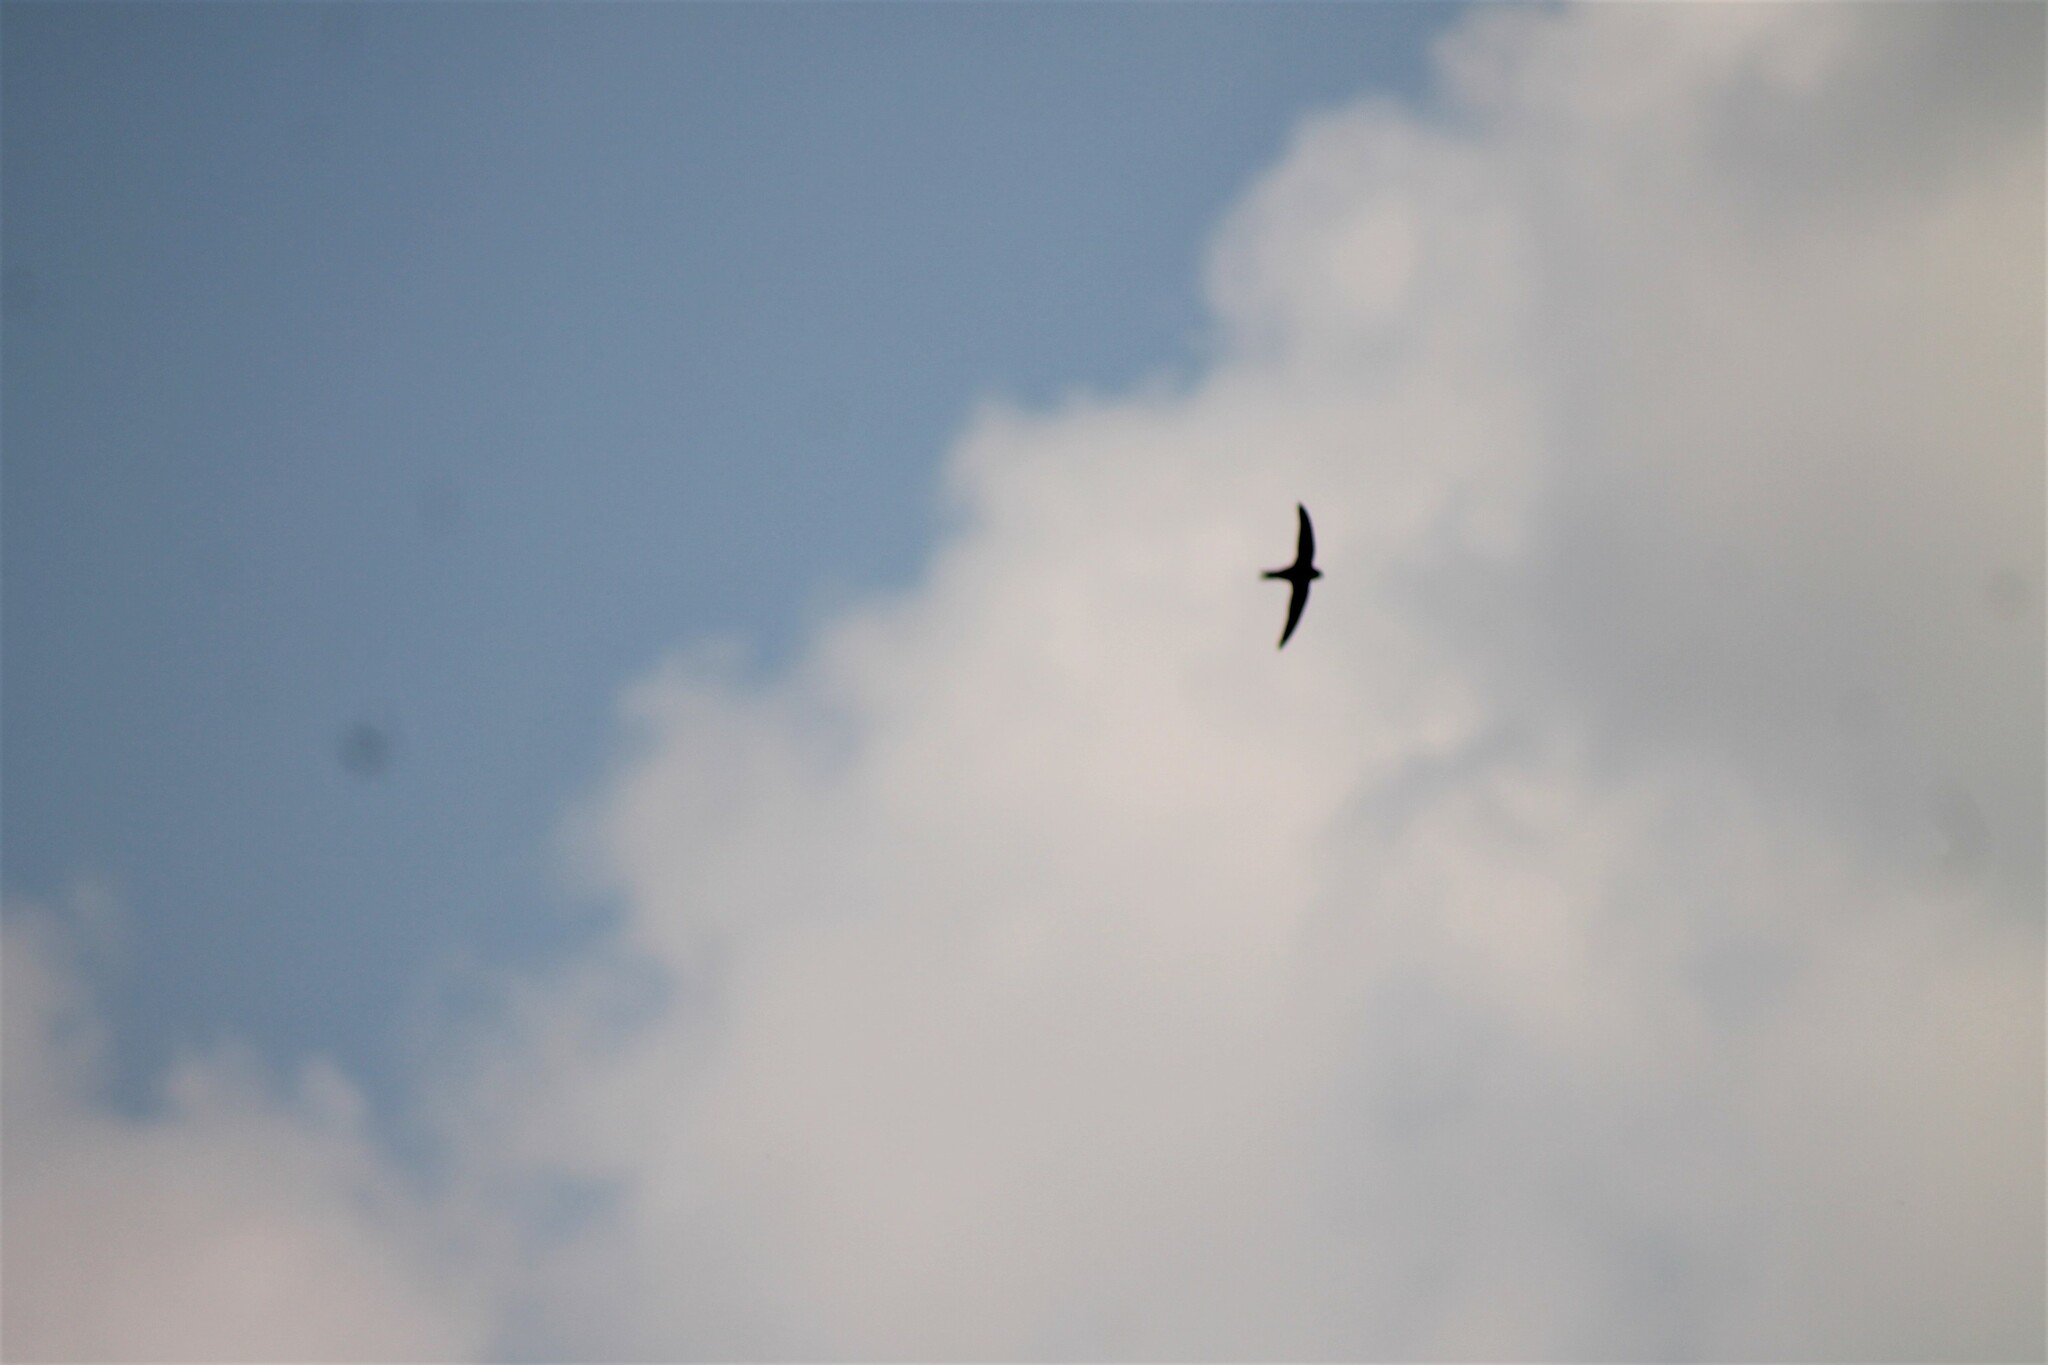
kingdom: Animalia
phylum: Chordata
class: Aves
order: Apodiformes
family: Apodidae
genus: Apus
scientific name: Apus apus
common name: Common swift
